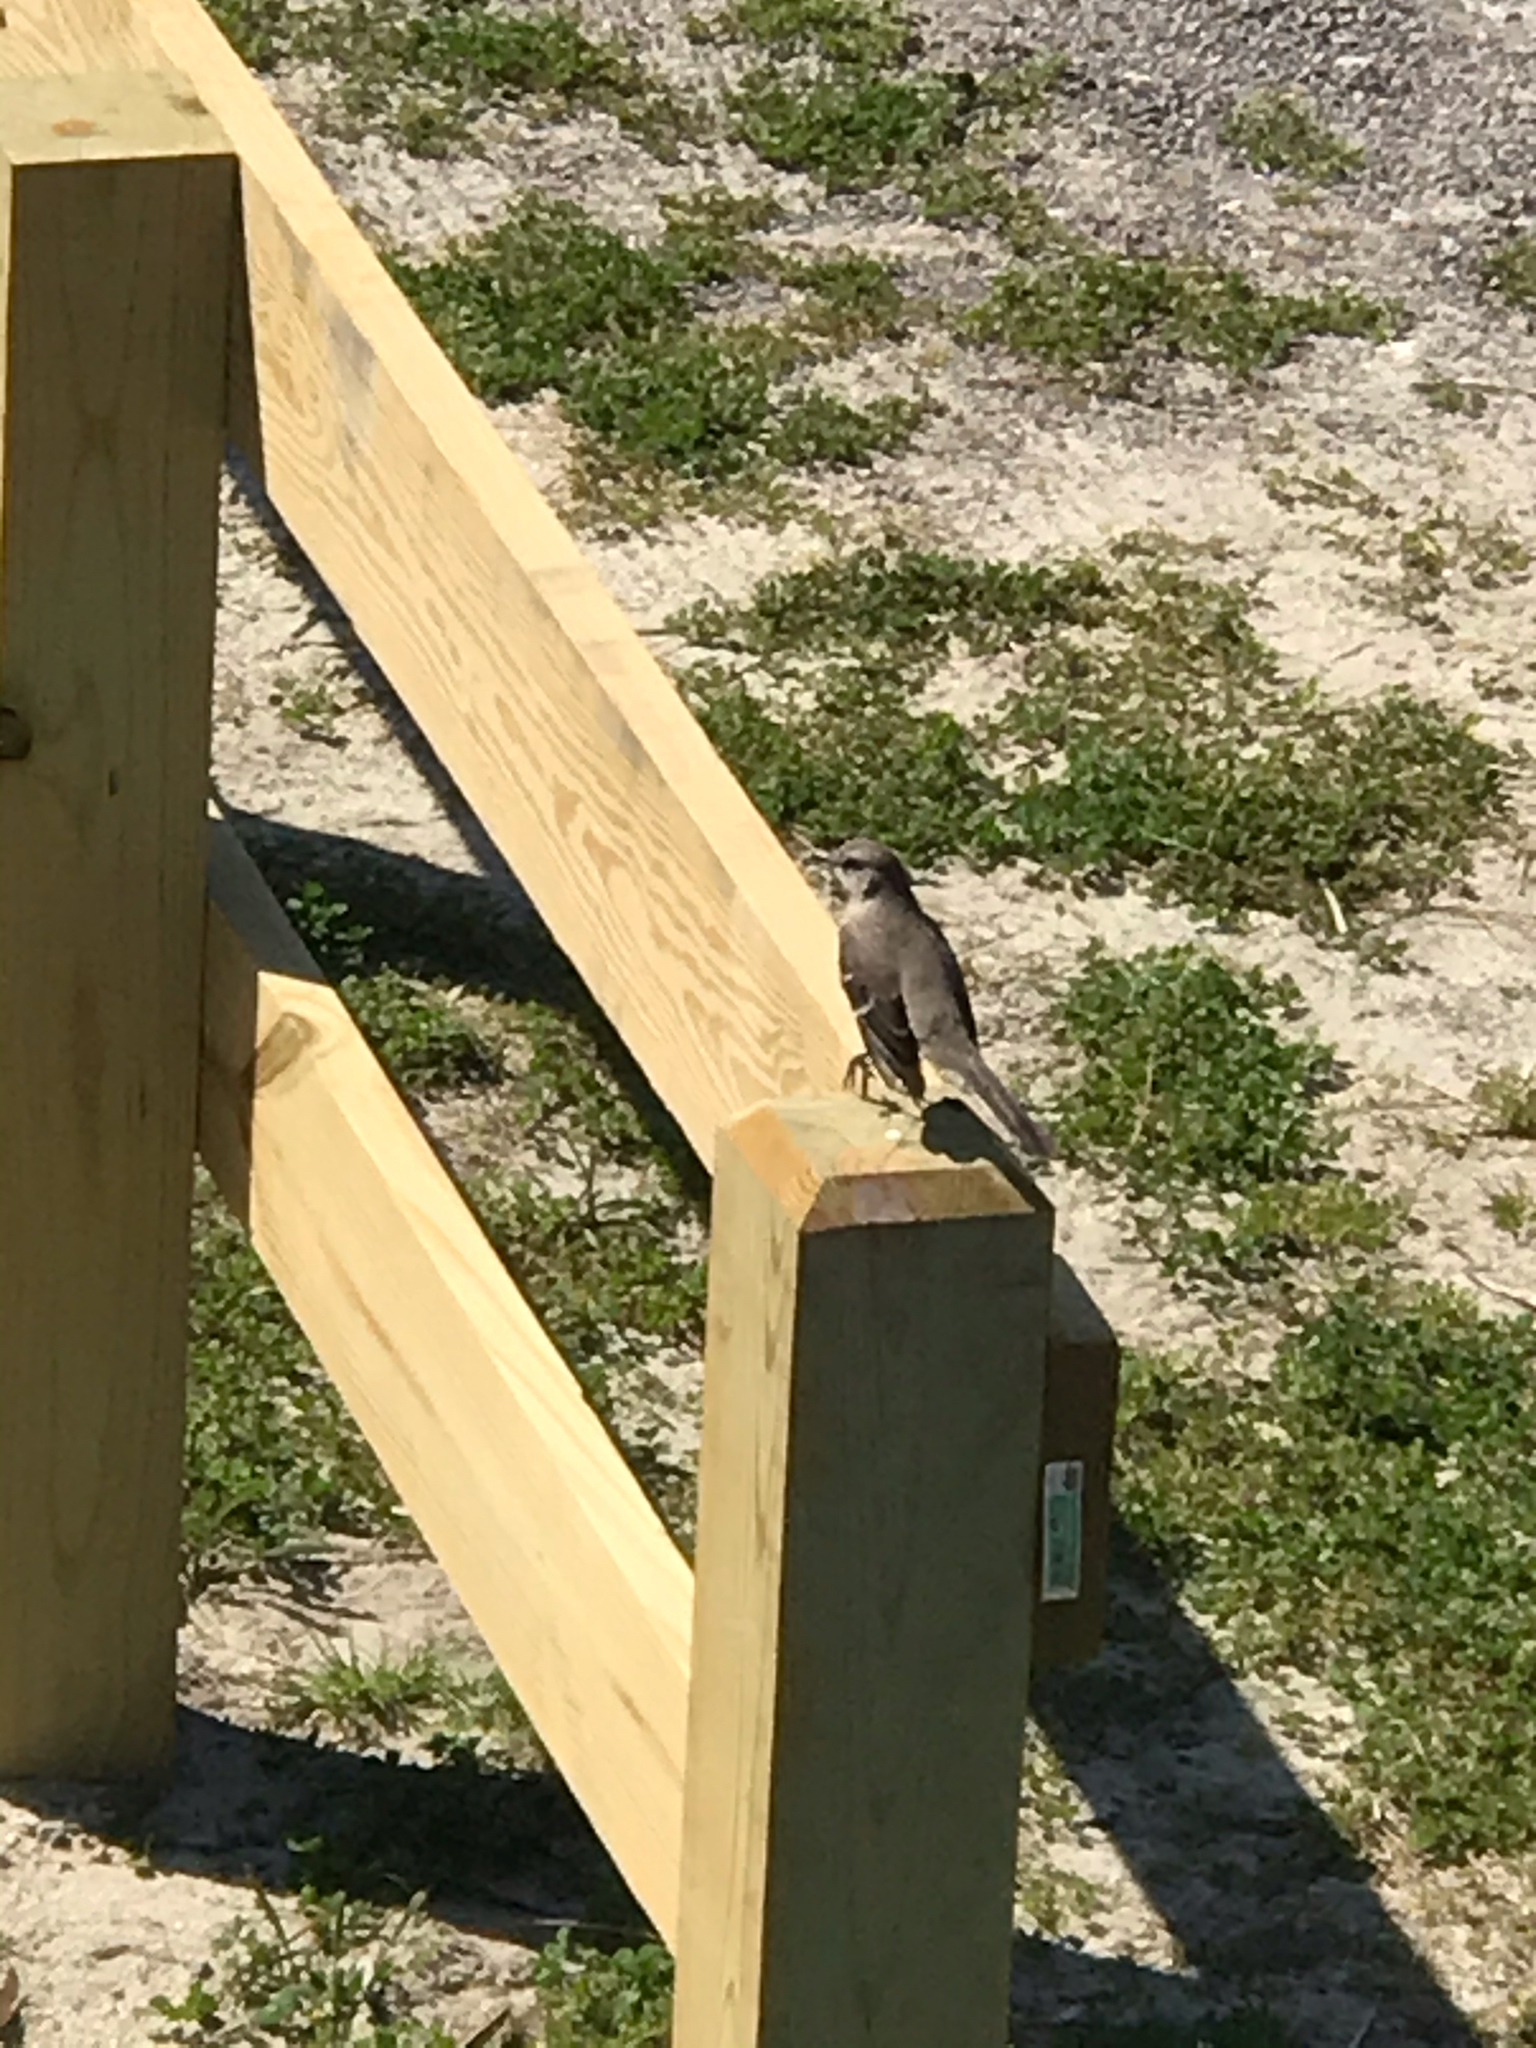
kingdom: Animalia
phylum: Chordata
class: Aves
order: Passeriformes
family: Mimidae
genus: Mimus
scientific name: Mimus polyglottos
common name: Northern mockingbird
